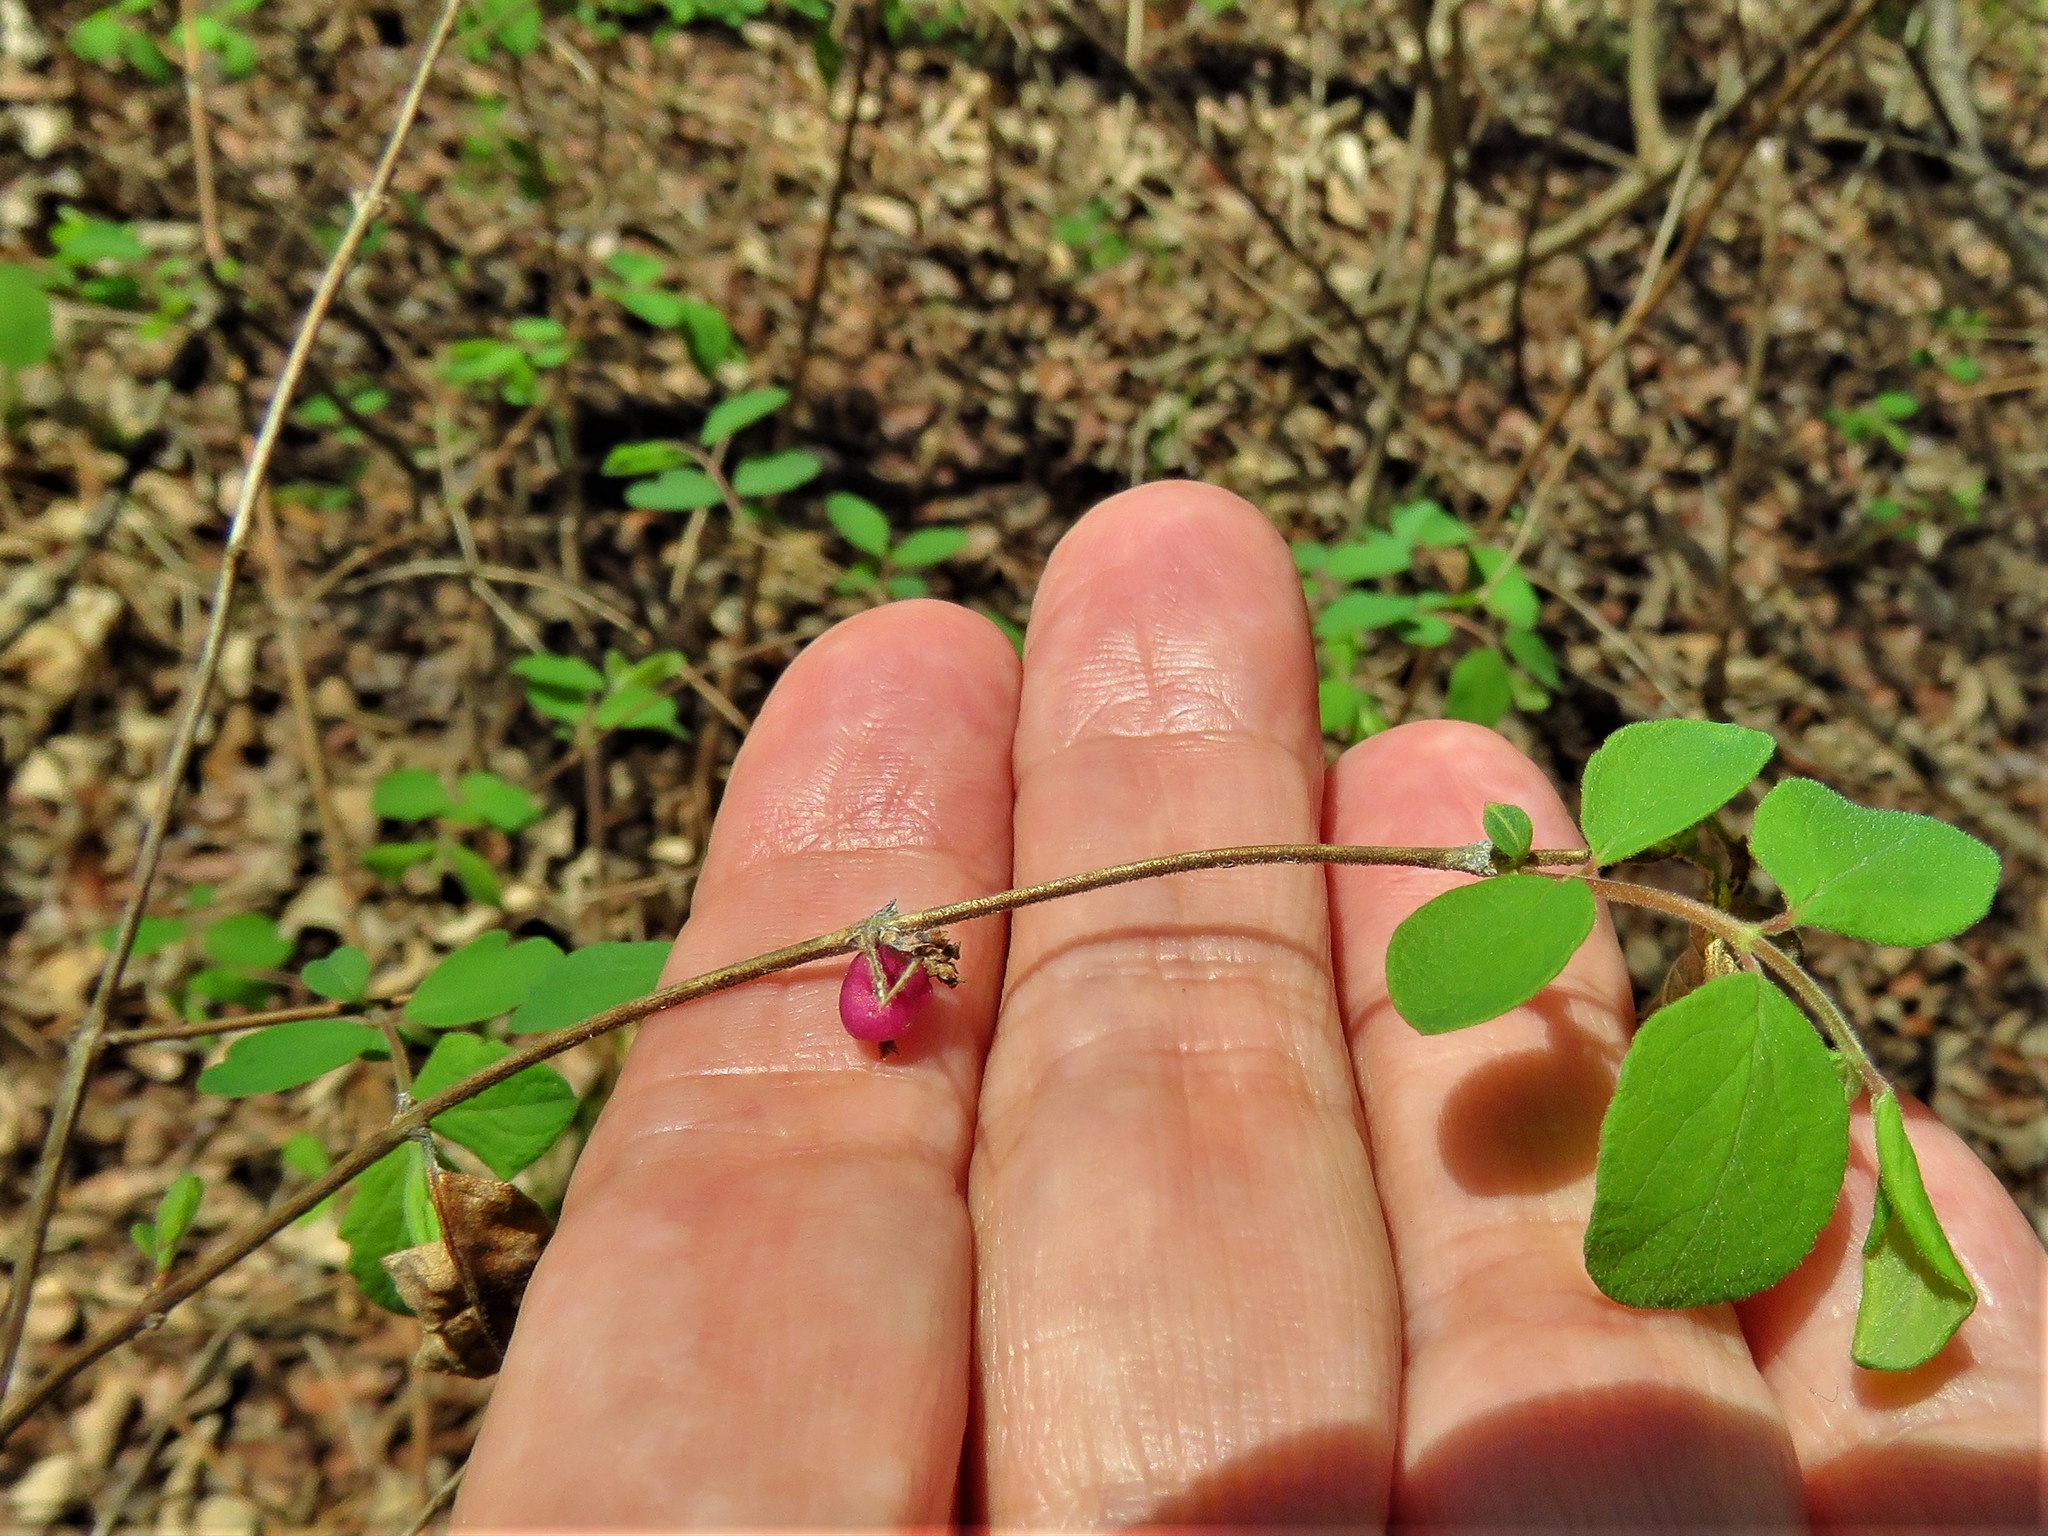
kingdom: Plantae
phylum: Tracheophyta
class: Magnoliopsida
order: Dipsacales
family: Caprifoliaceae
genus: Symphoricarpos
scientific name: Symphoricarpos orbiculatus
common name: Coralberry
